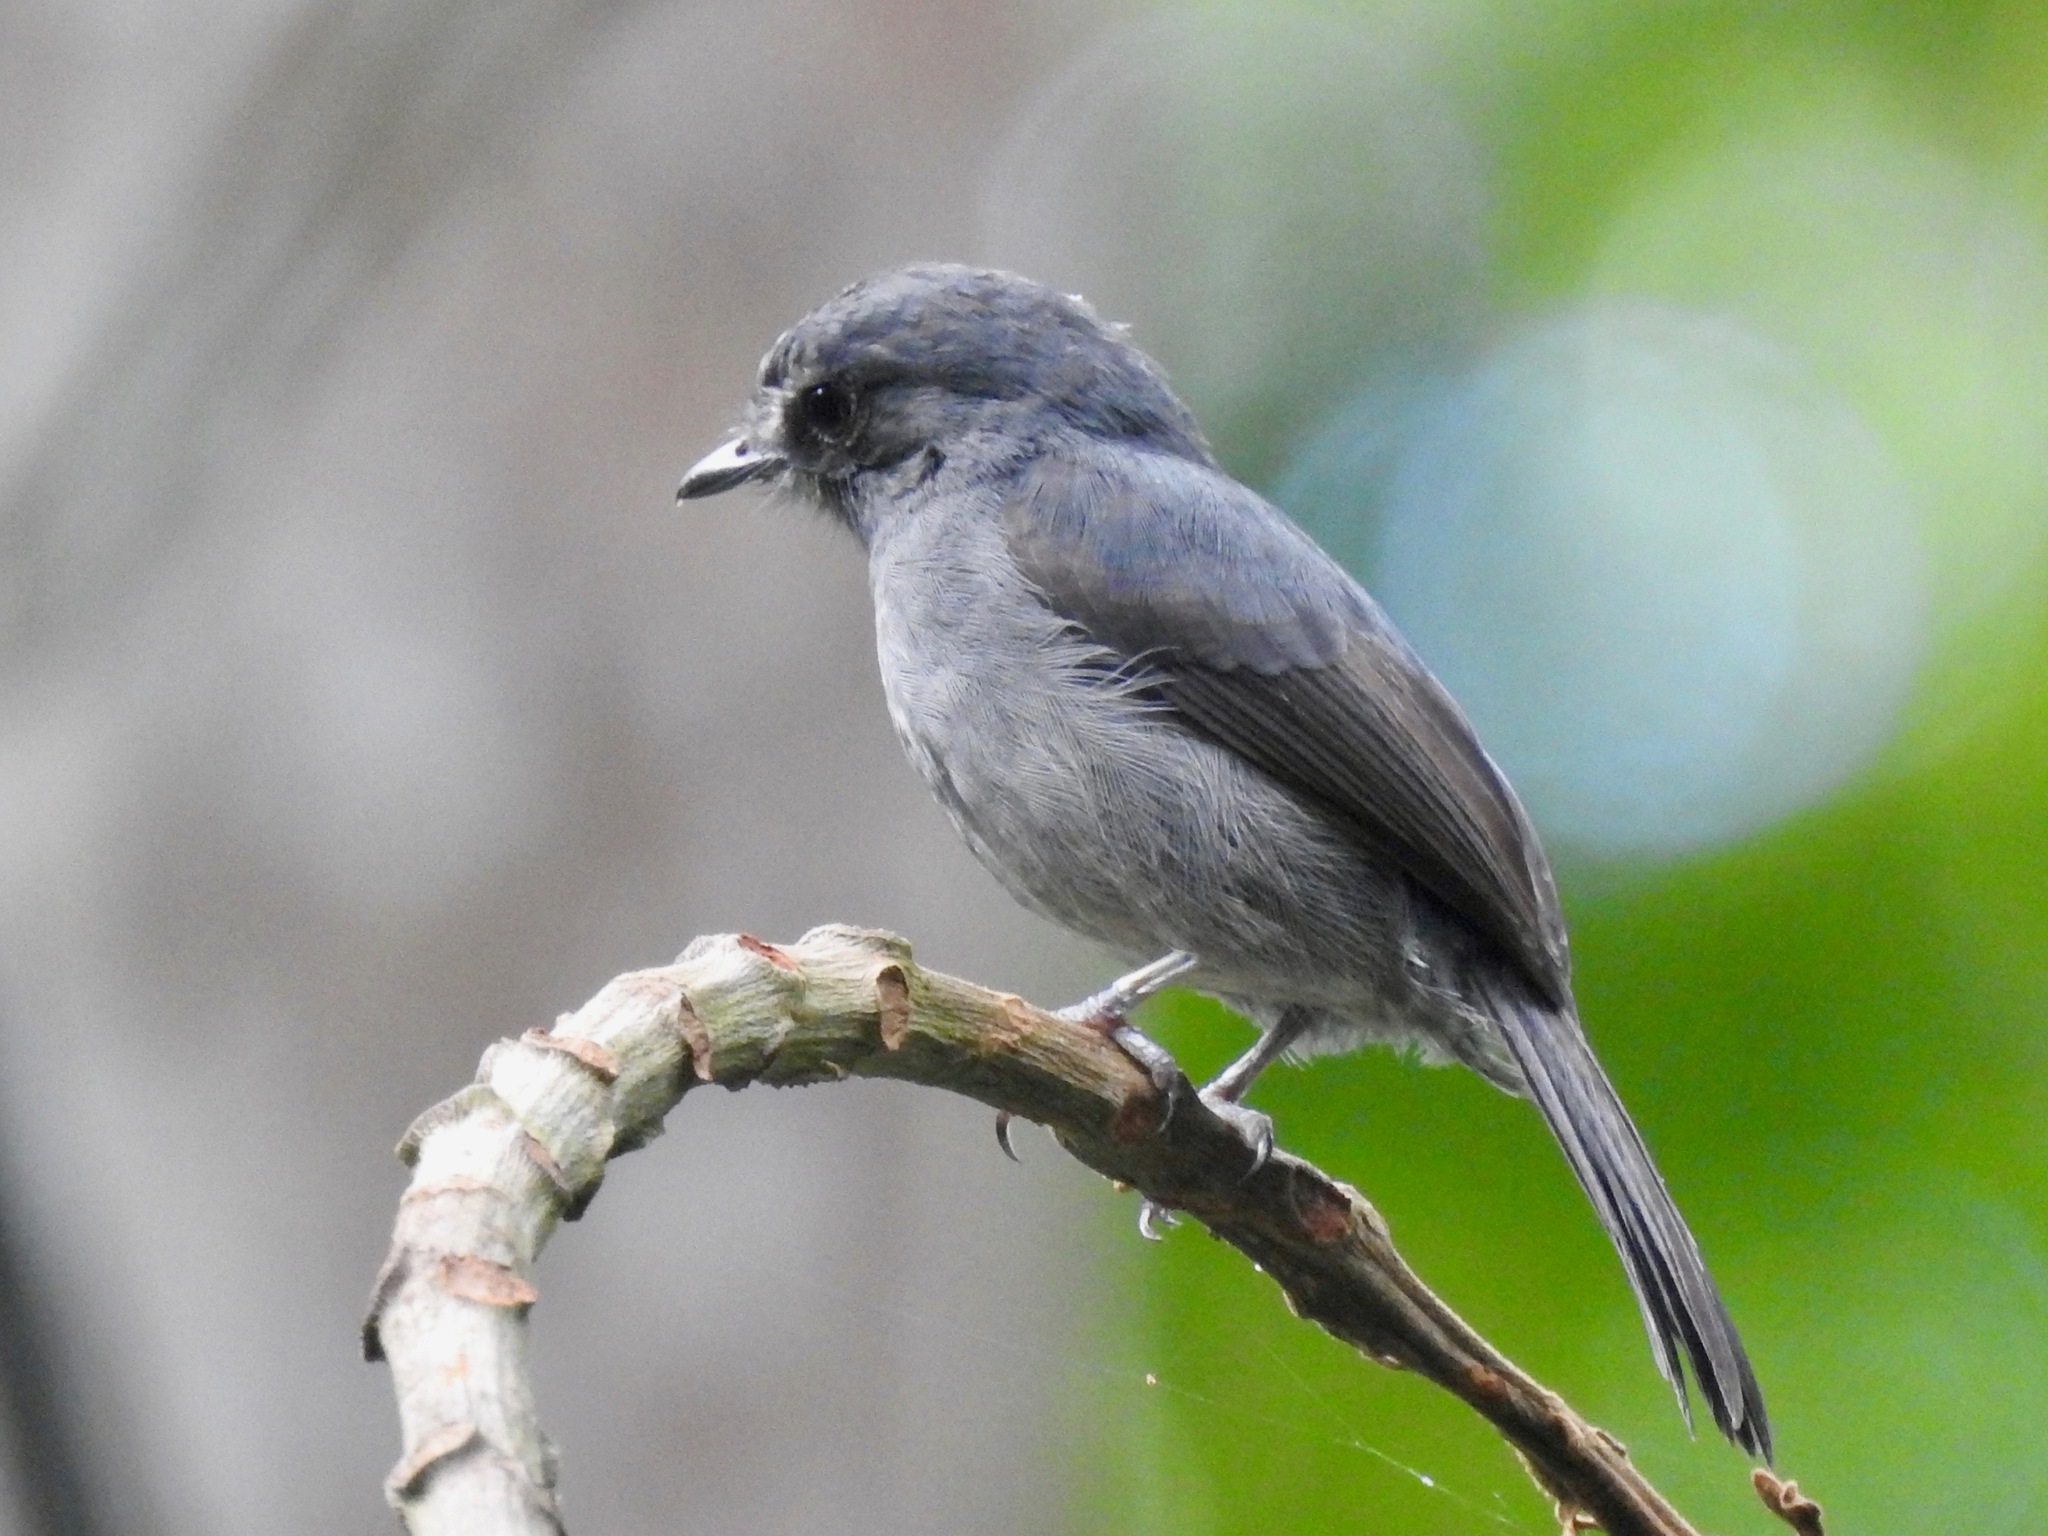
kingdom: Animalia
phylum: Chordata
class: Aves
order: Passeriformes
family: Muscicapidae
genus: Muscicapa
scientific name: Muscicapa epulata
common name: Little grey flycatcher
